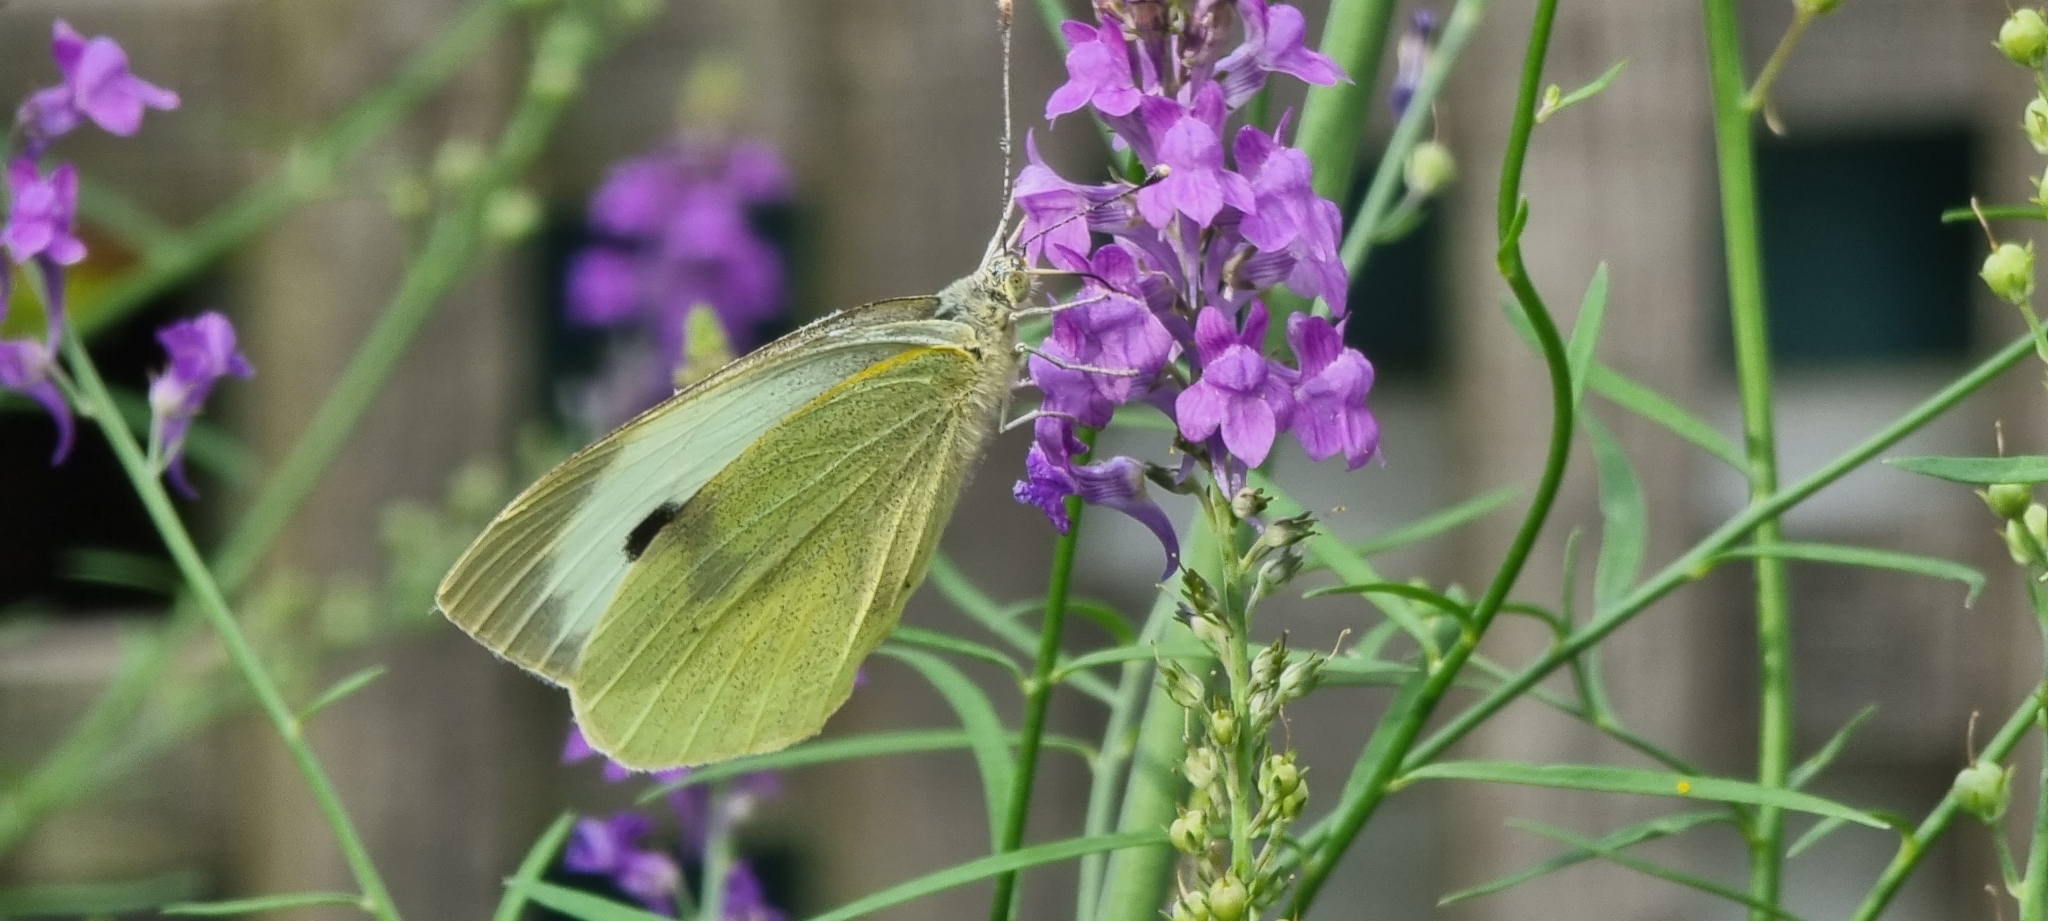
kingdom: Animalia
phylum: Arthropoda
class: Insecta
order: Lepidoptera
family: Pieridae
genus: Pieris
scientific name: Pieris brassicae
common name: Large white
